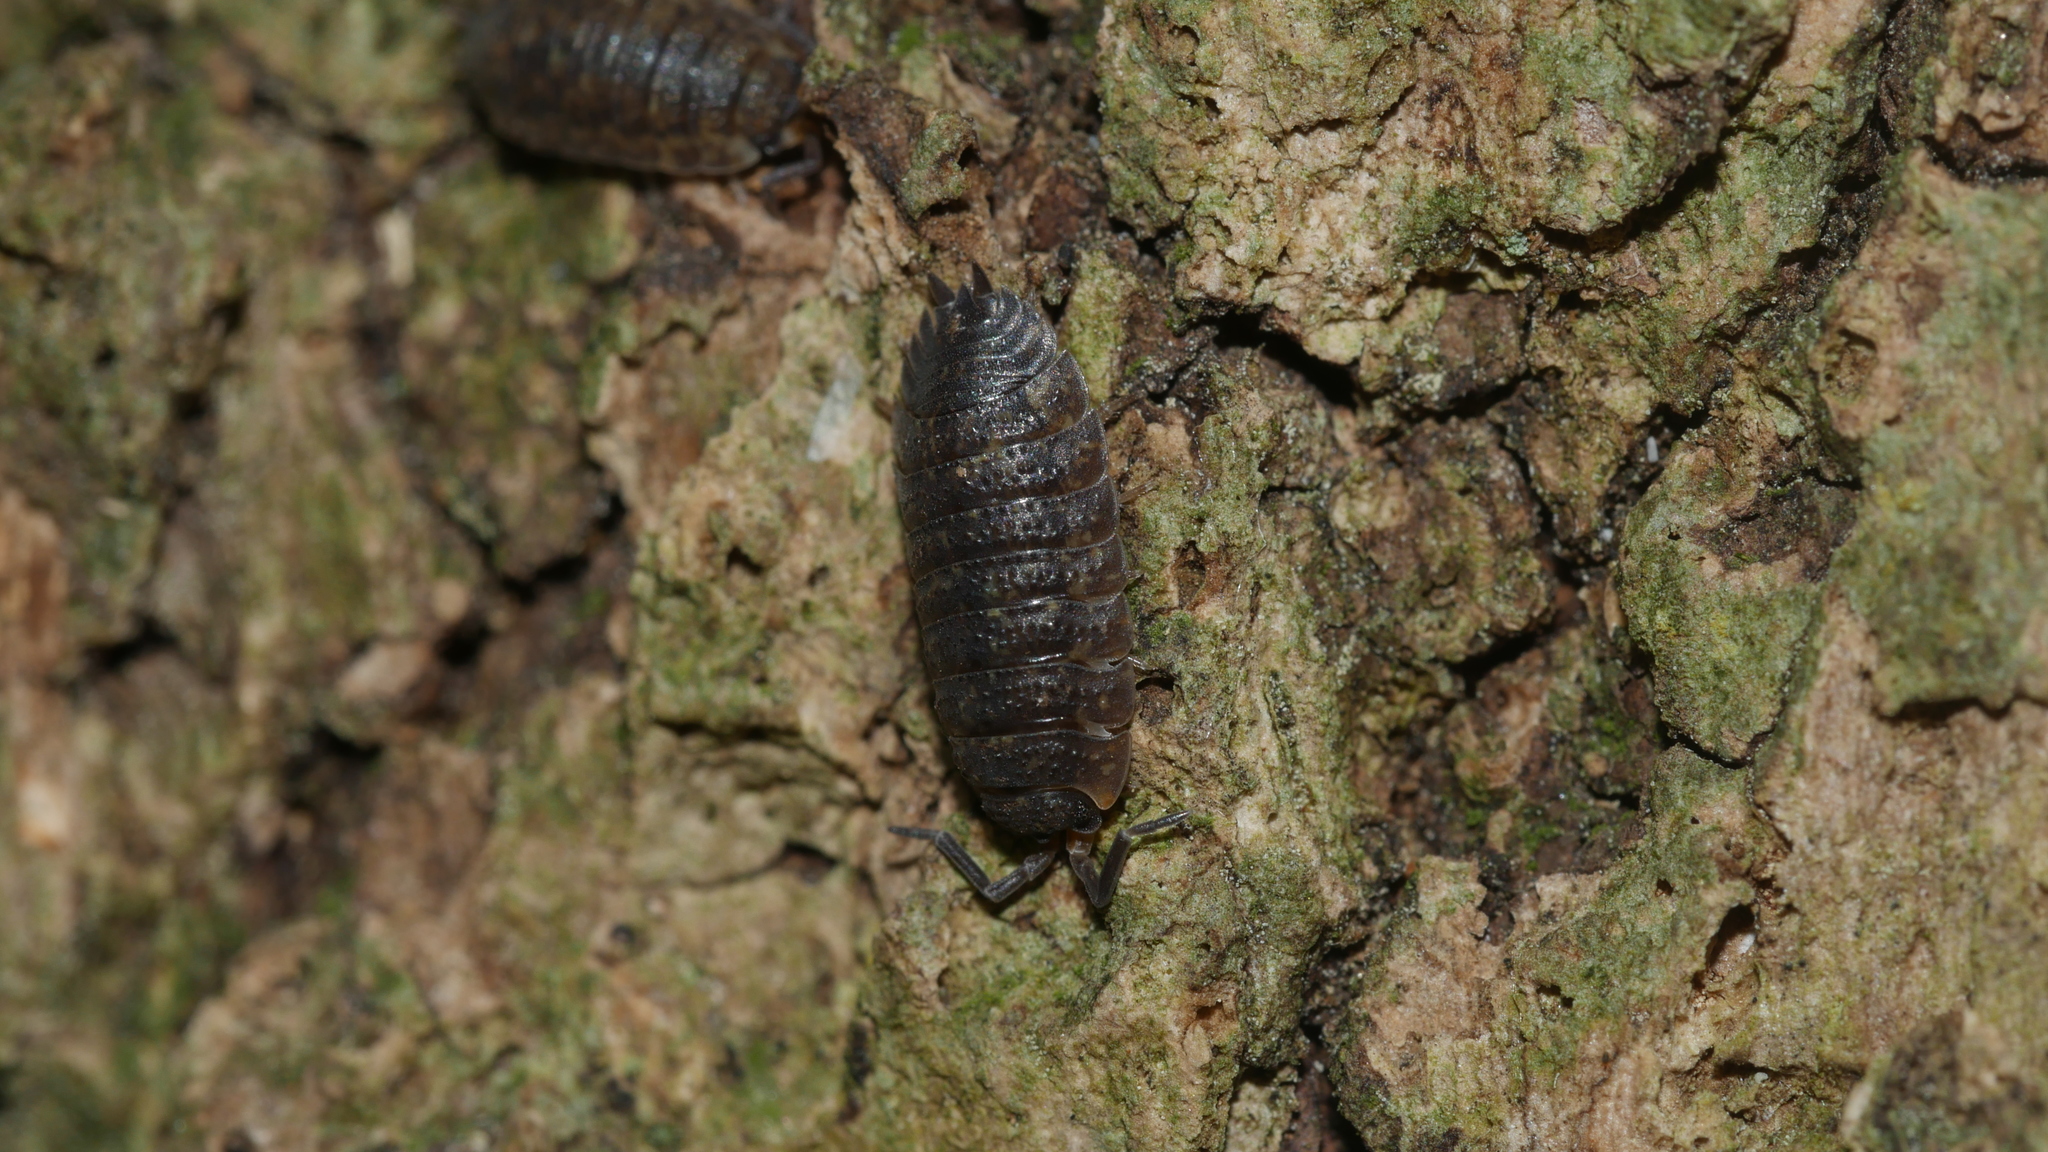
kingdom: Animalia
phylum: Arthropoda
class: Malacostraca
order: Isopoda
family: Porcellionidae
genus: Porcellio
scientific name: Porcellio scaber
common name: Common rough woodlouse
